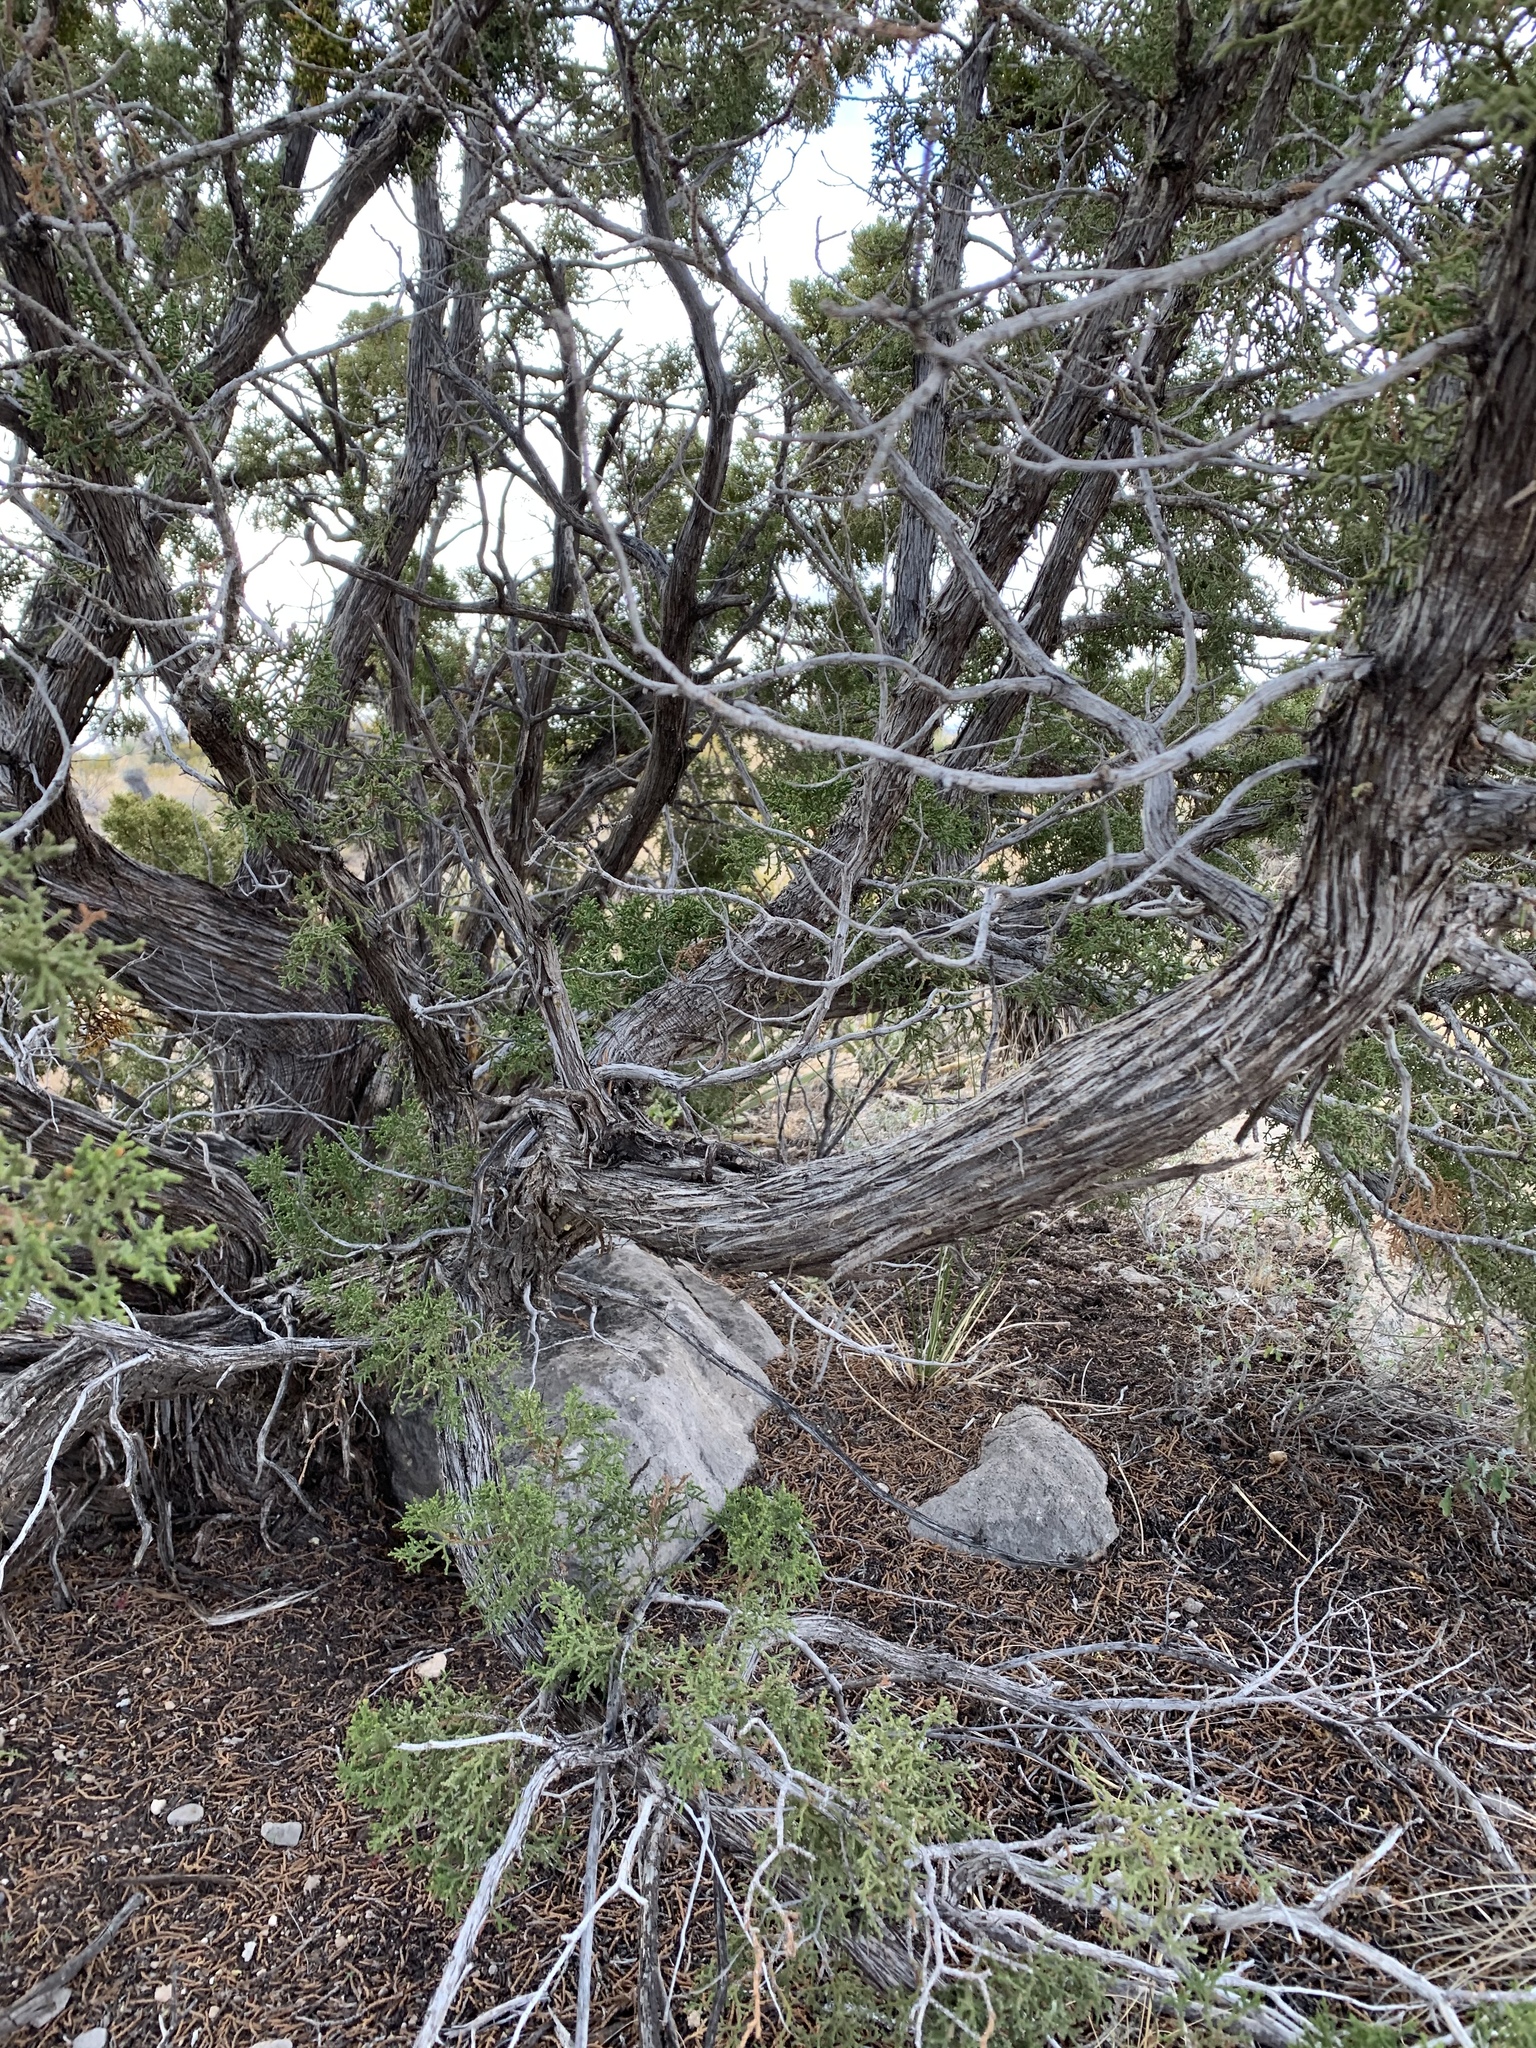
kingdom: Plantae
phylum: Tracheophyta
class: Pinopsida
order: Pinales
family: Cupressaceae
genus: Juniperus
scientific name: Juniperus monosperma
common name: One-seed juniper
